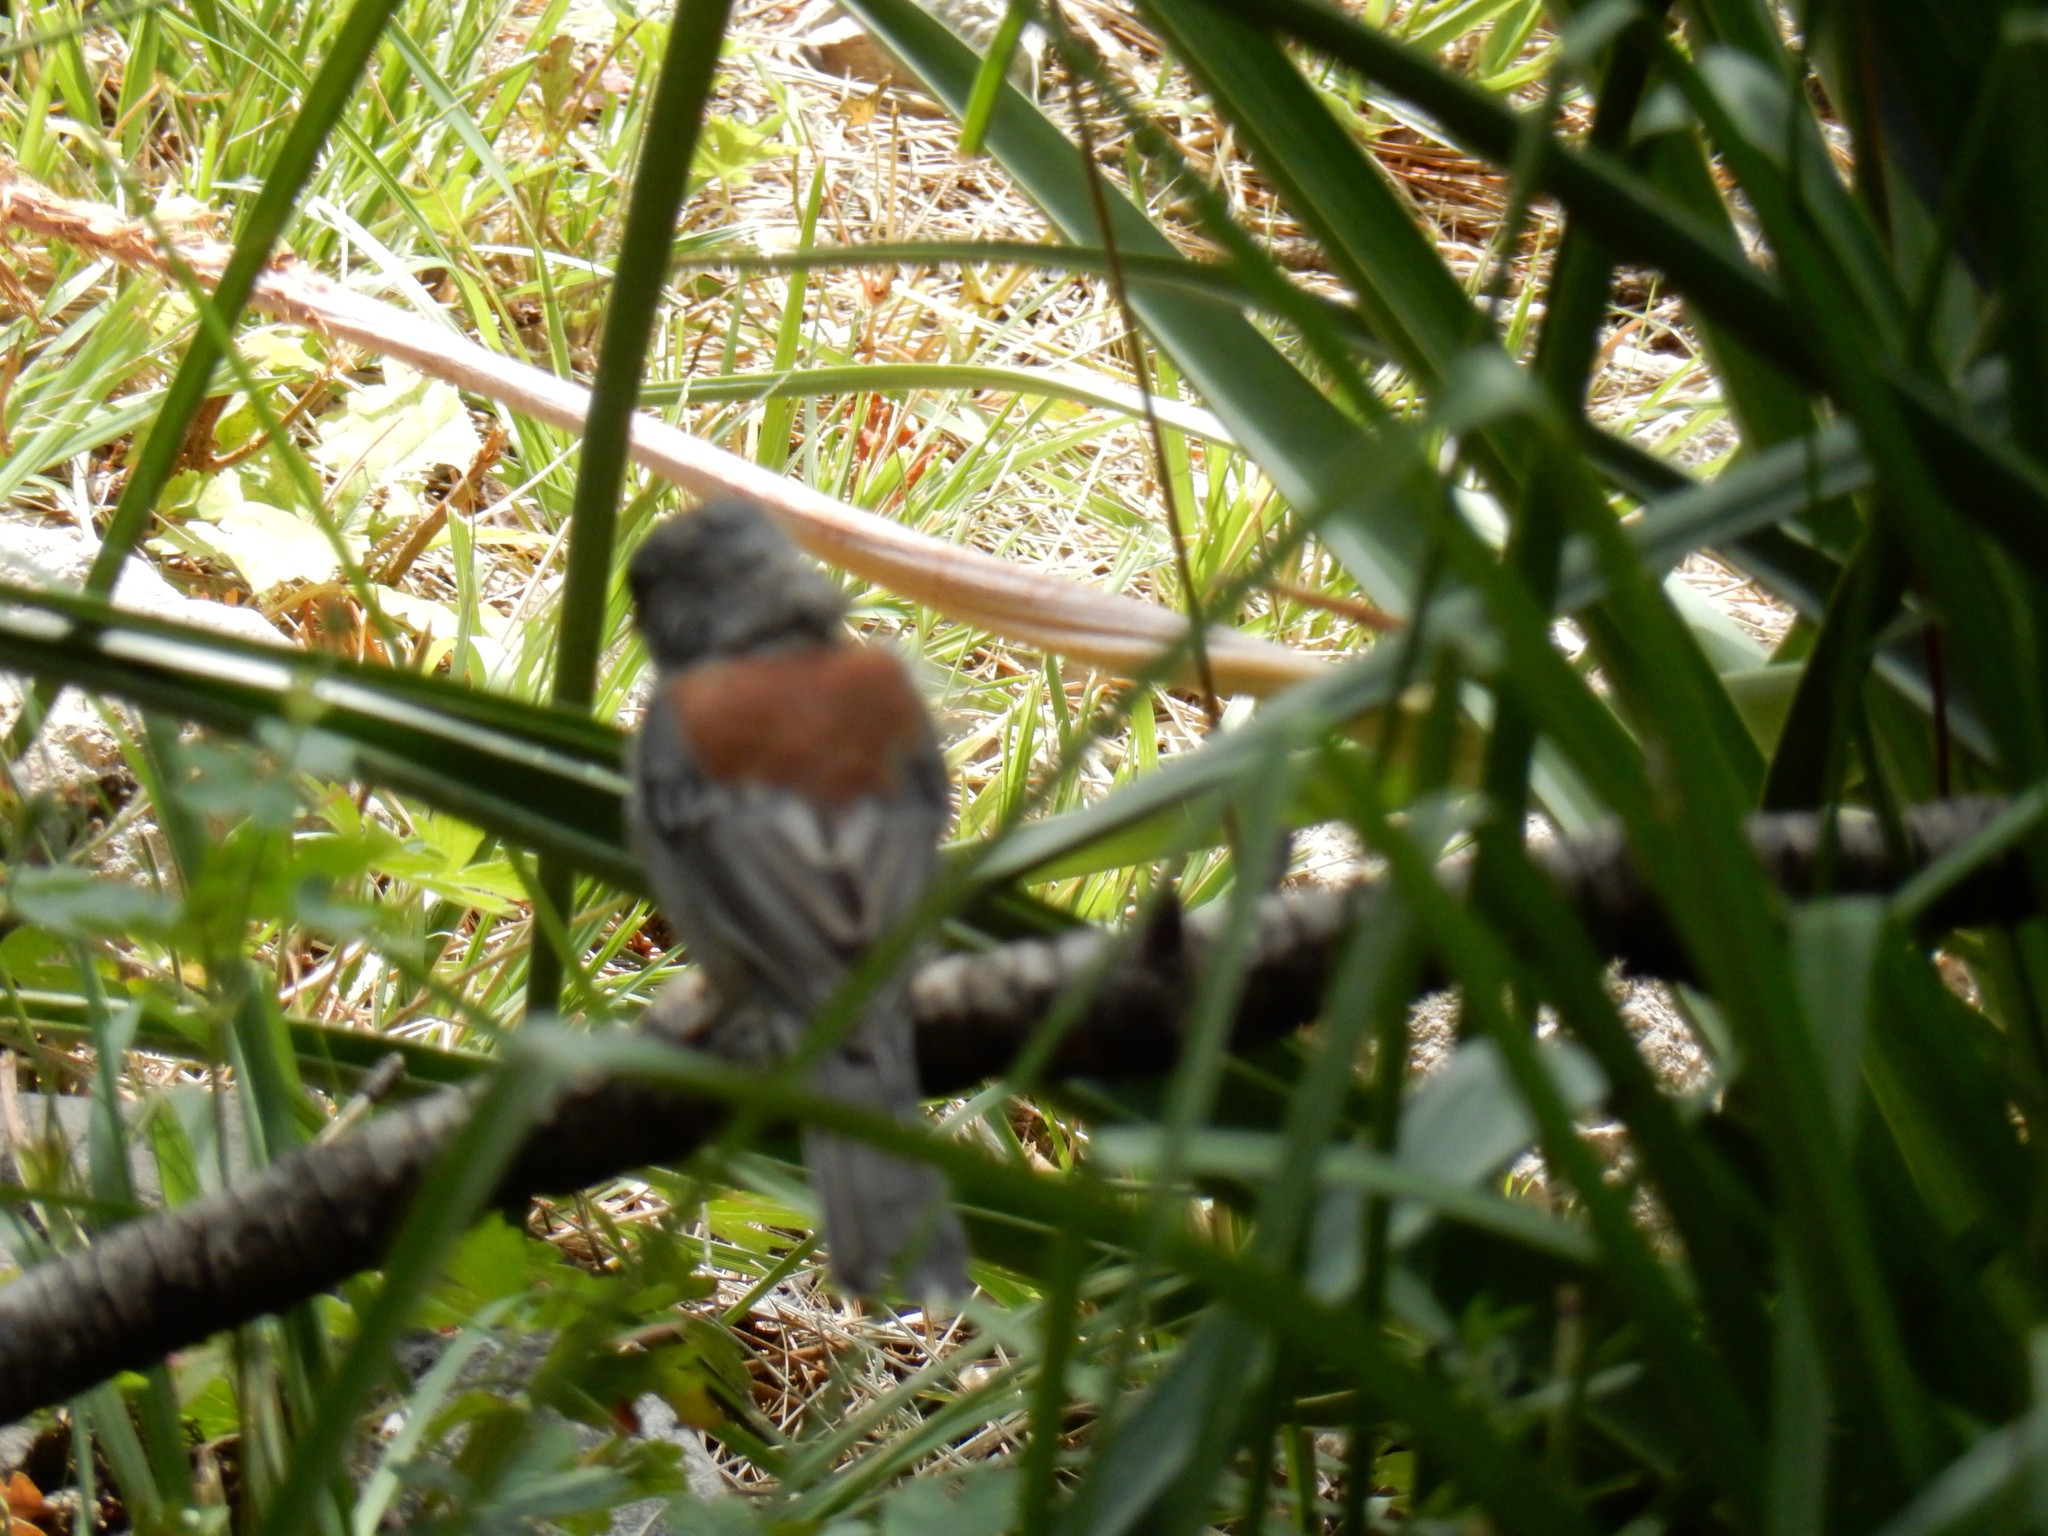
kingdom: Animalia
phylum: Chordata
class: Aves
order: Passeriformes
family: Passerellidae
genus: Junco
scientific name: Junco hyemalis
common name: Dark-eyed junco
